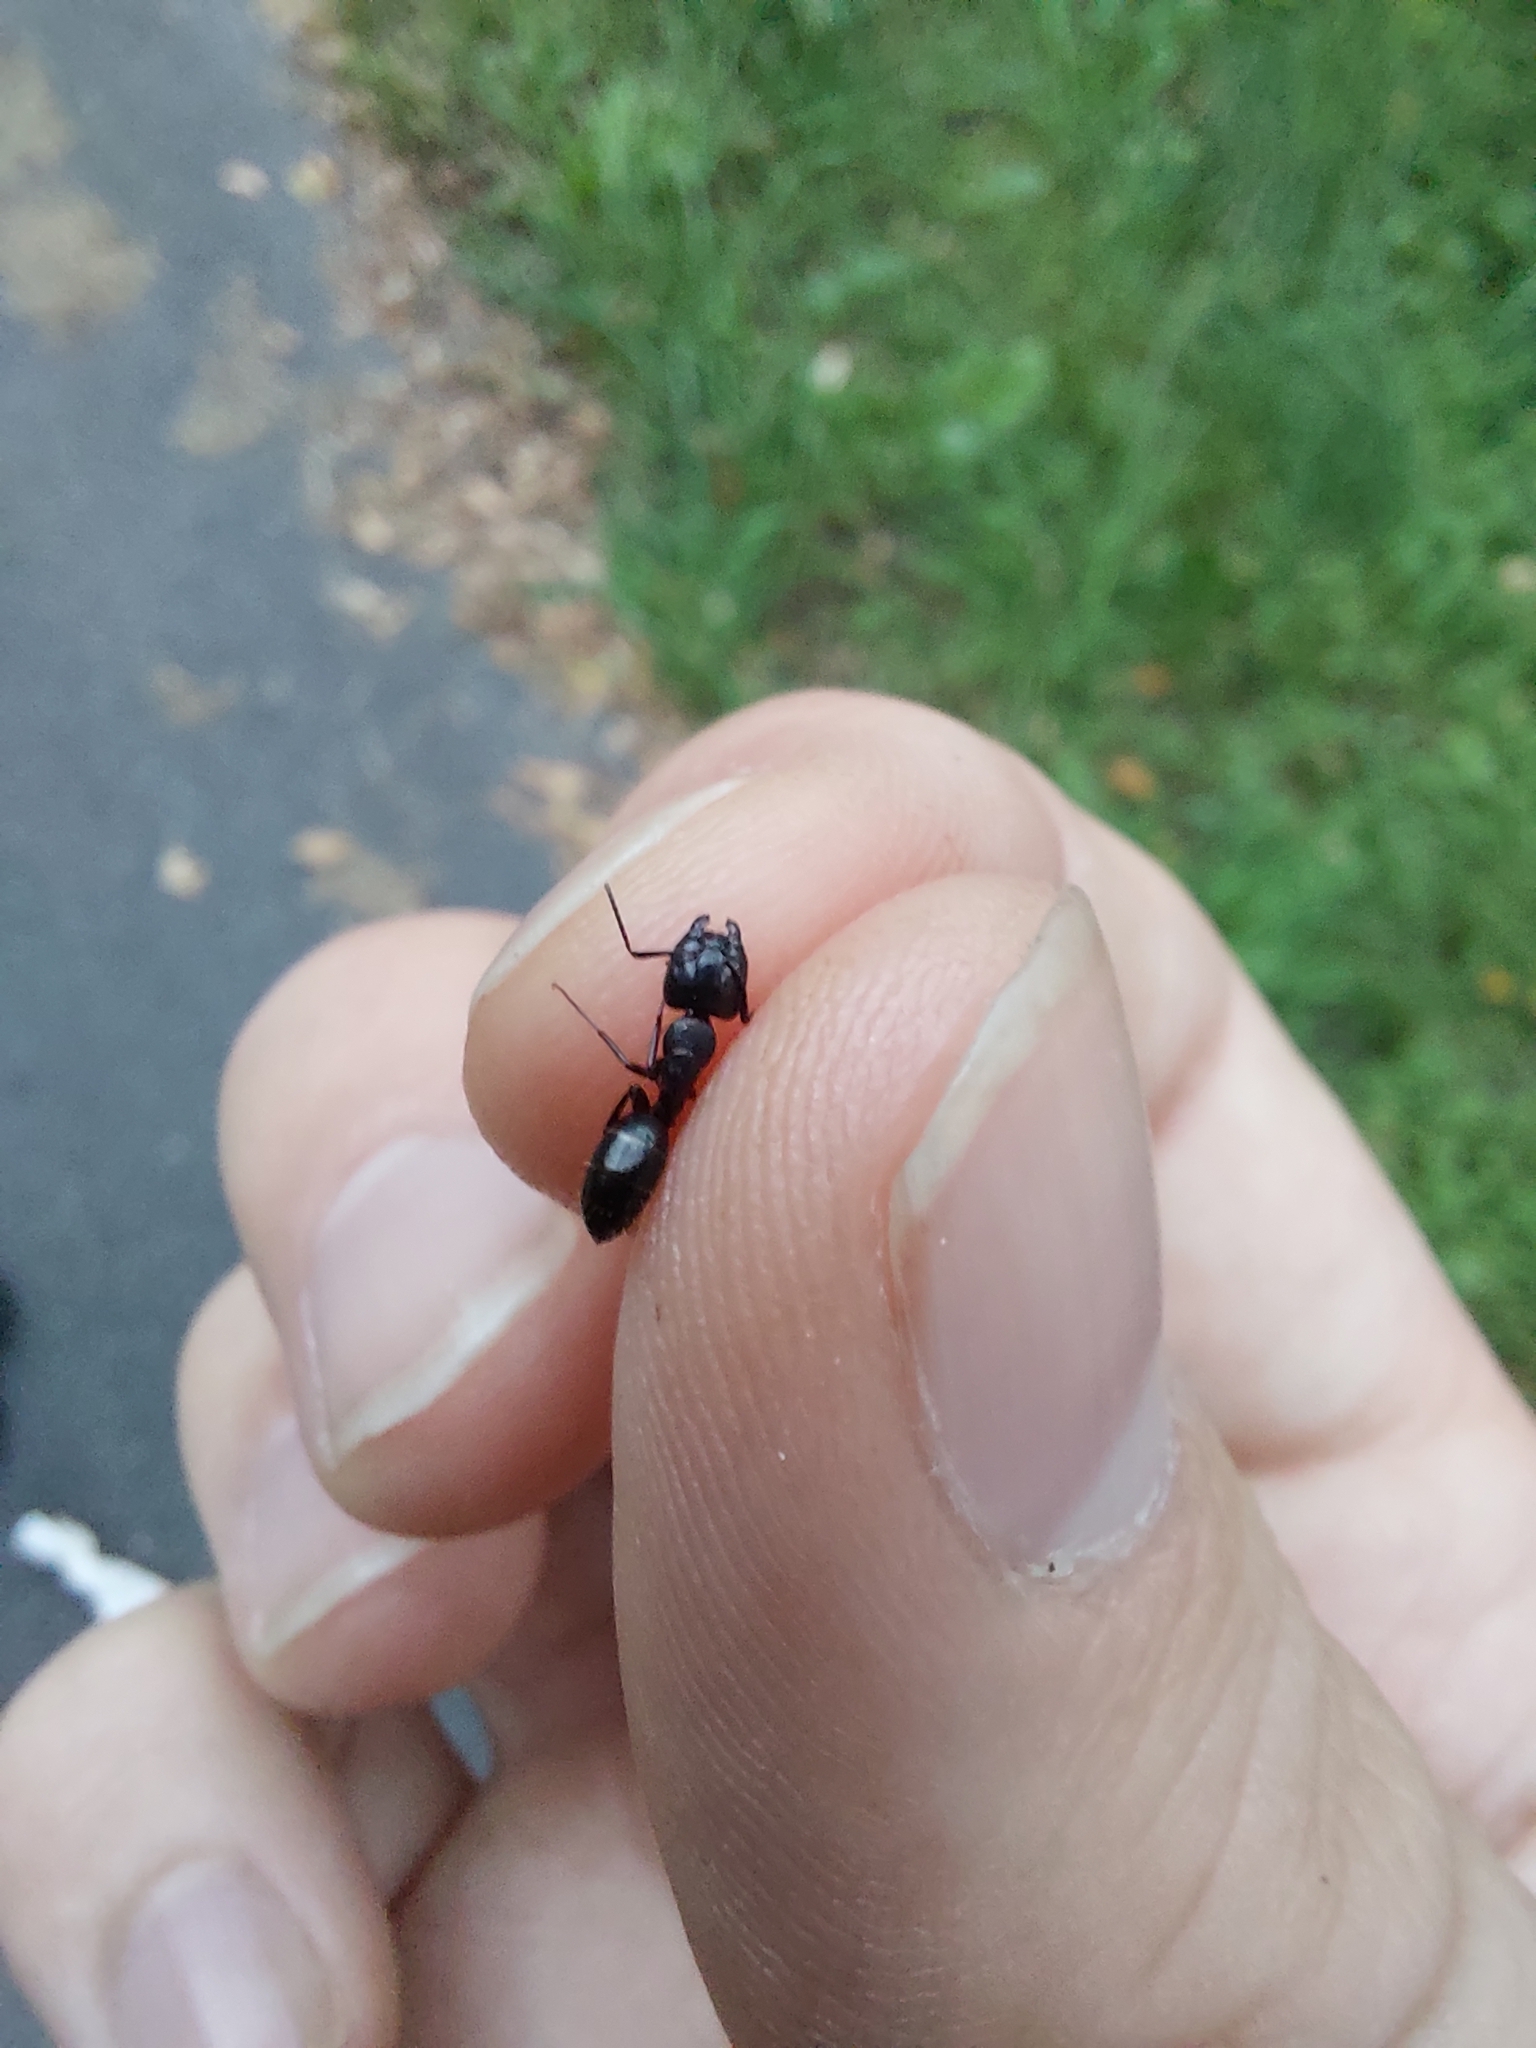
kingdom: Animalia
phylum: Arthropoda
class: Insecta
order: Hymenoptera
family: Formicidae
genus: Camponotus
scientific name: Camponotus fallax
